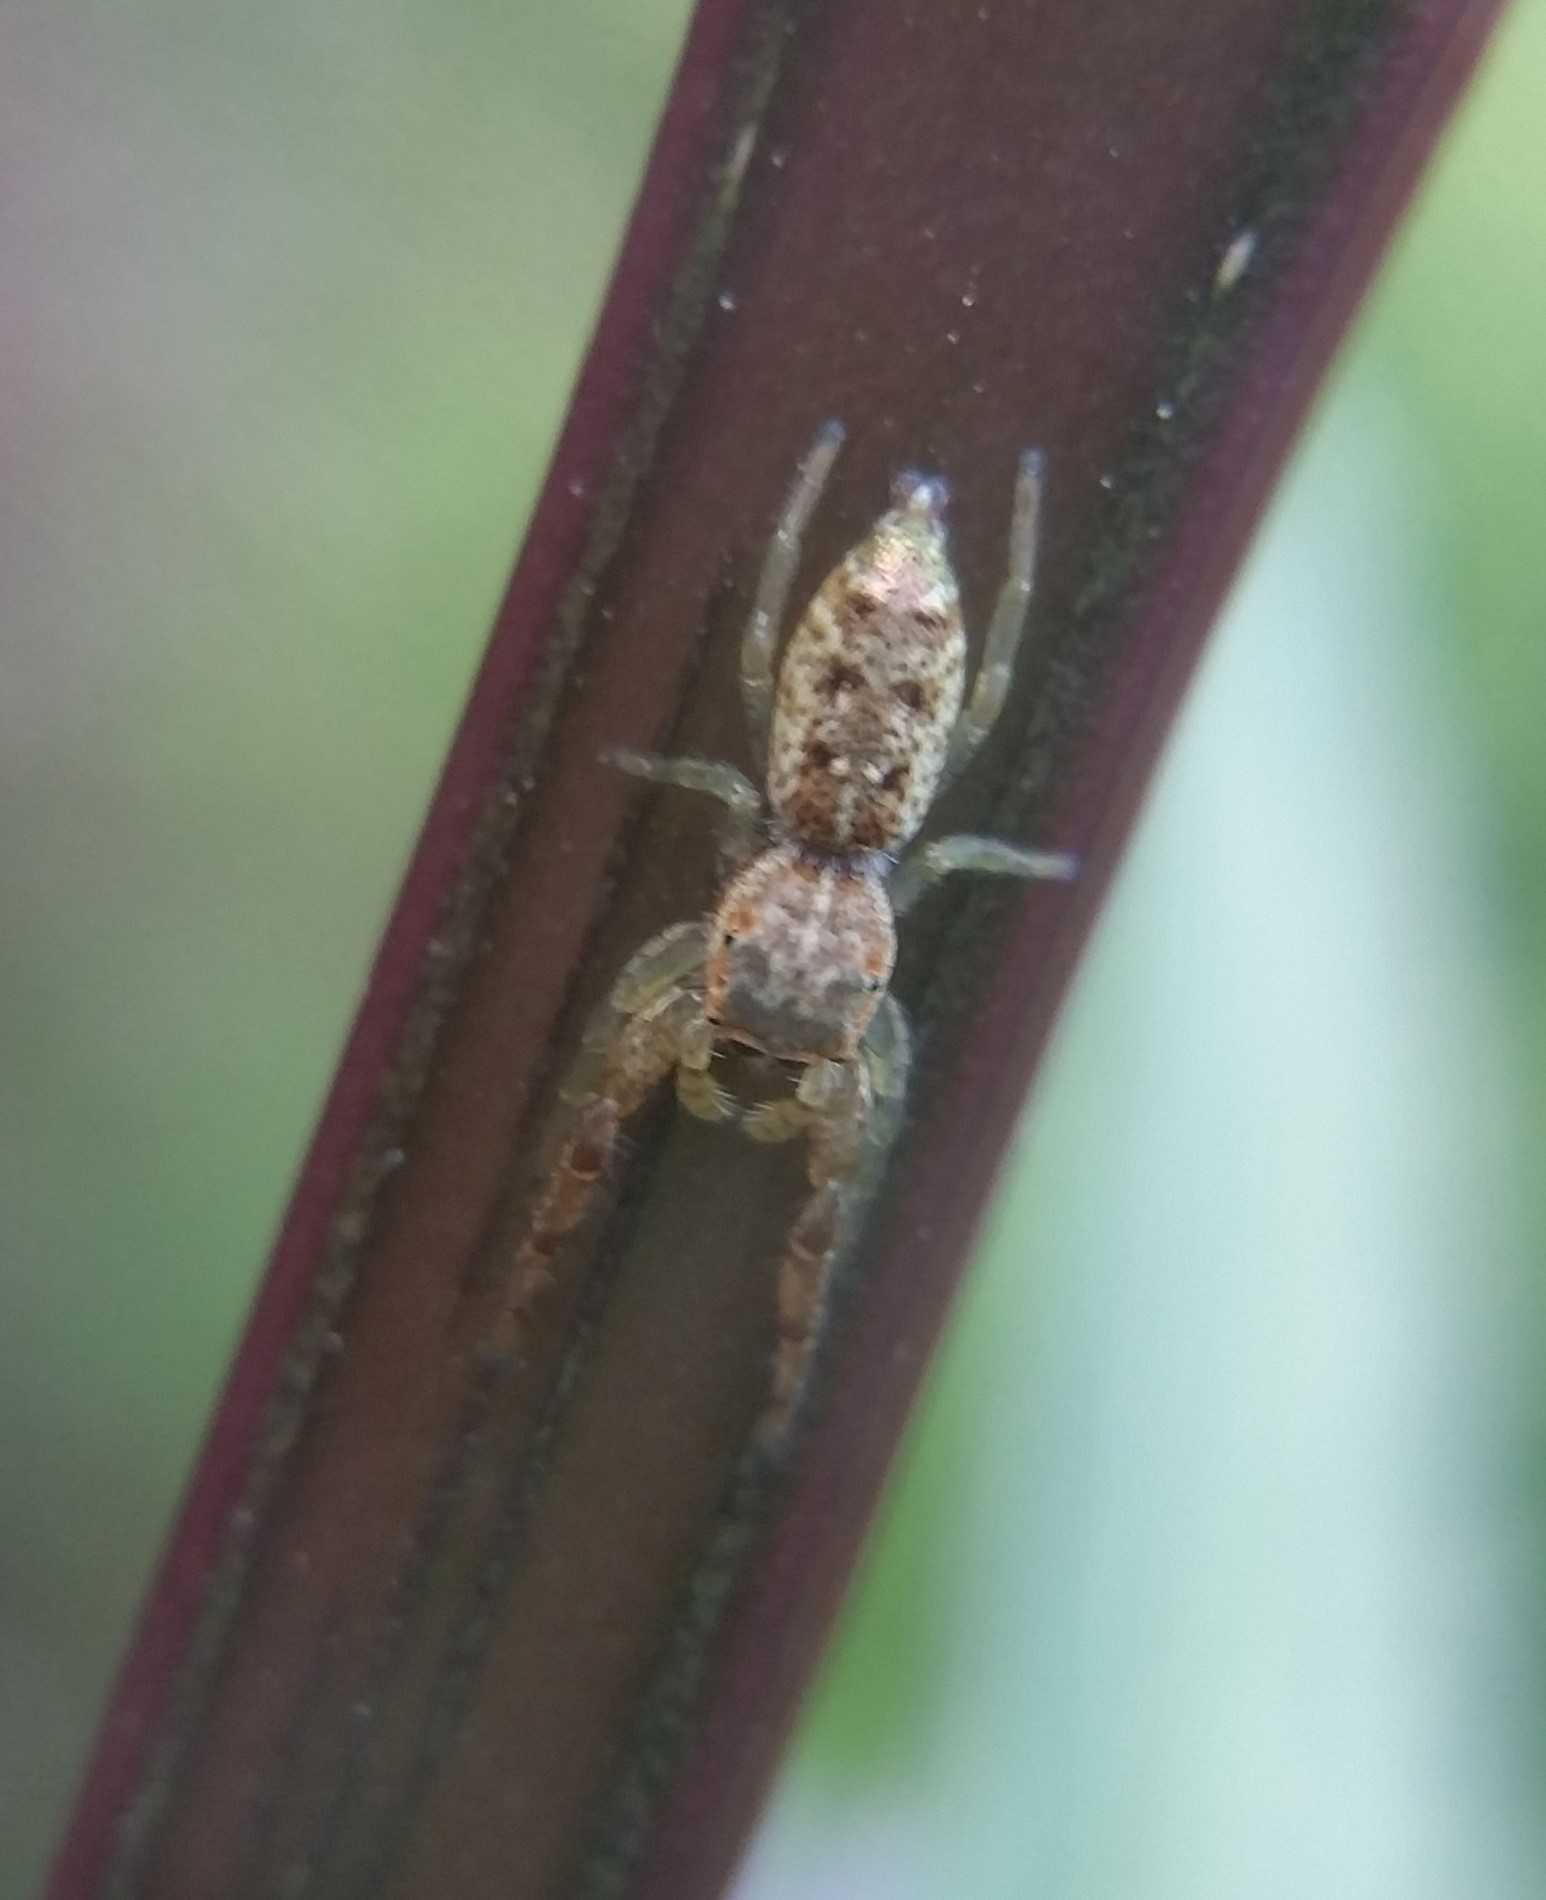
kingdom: Animalia
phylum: Arthropoda
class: Arachnida
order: Araneae
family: Salticidae
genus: Hentzia
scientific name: Hentzia palmarum
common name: Common hentz jumping spider
